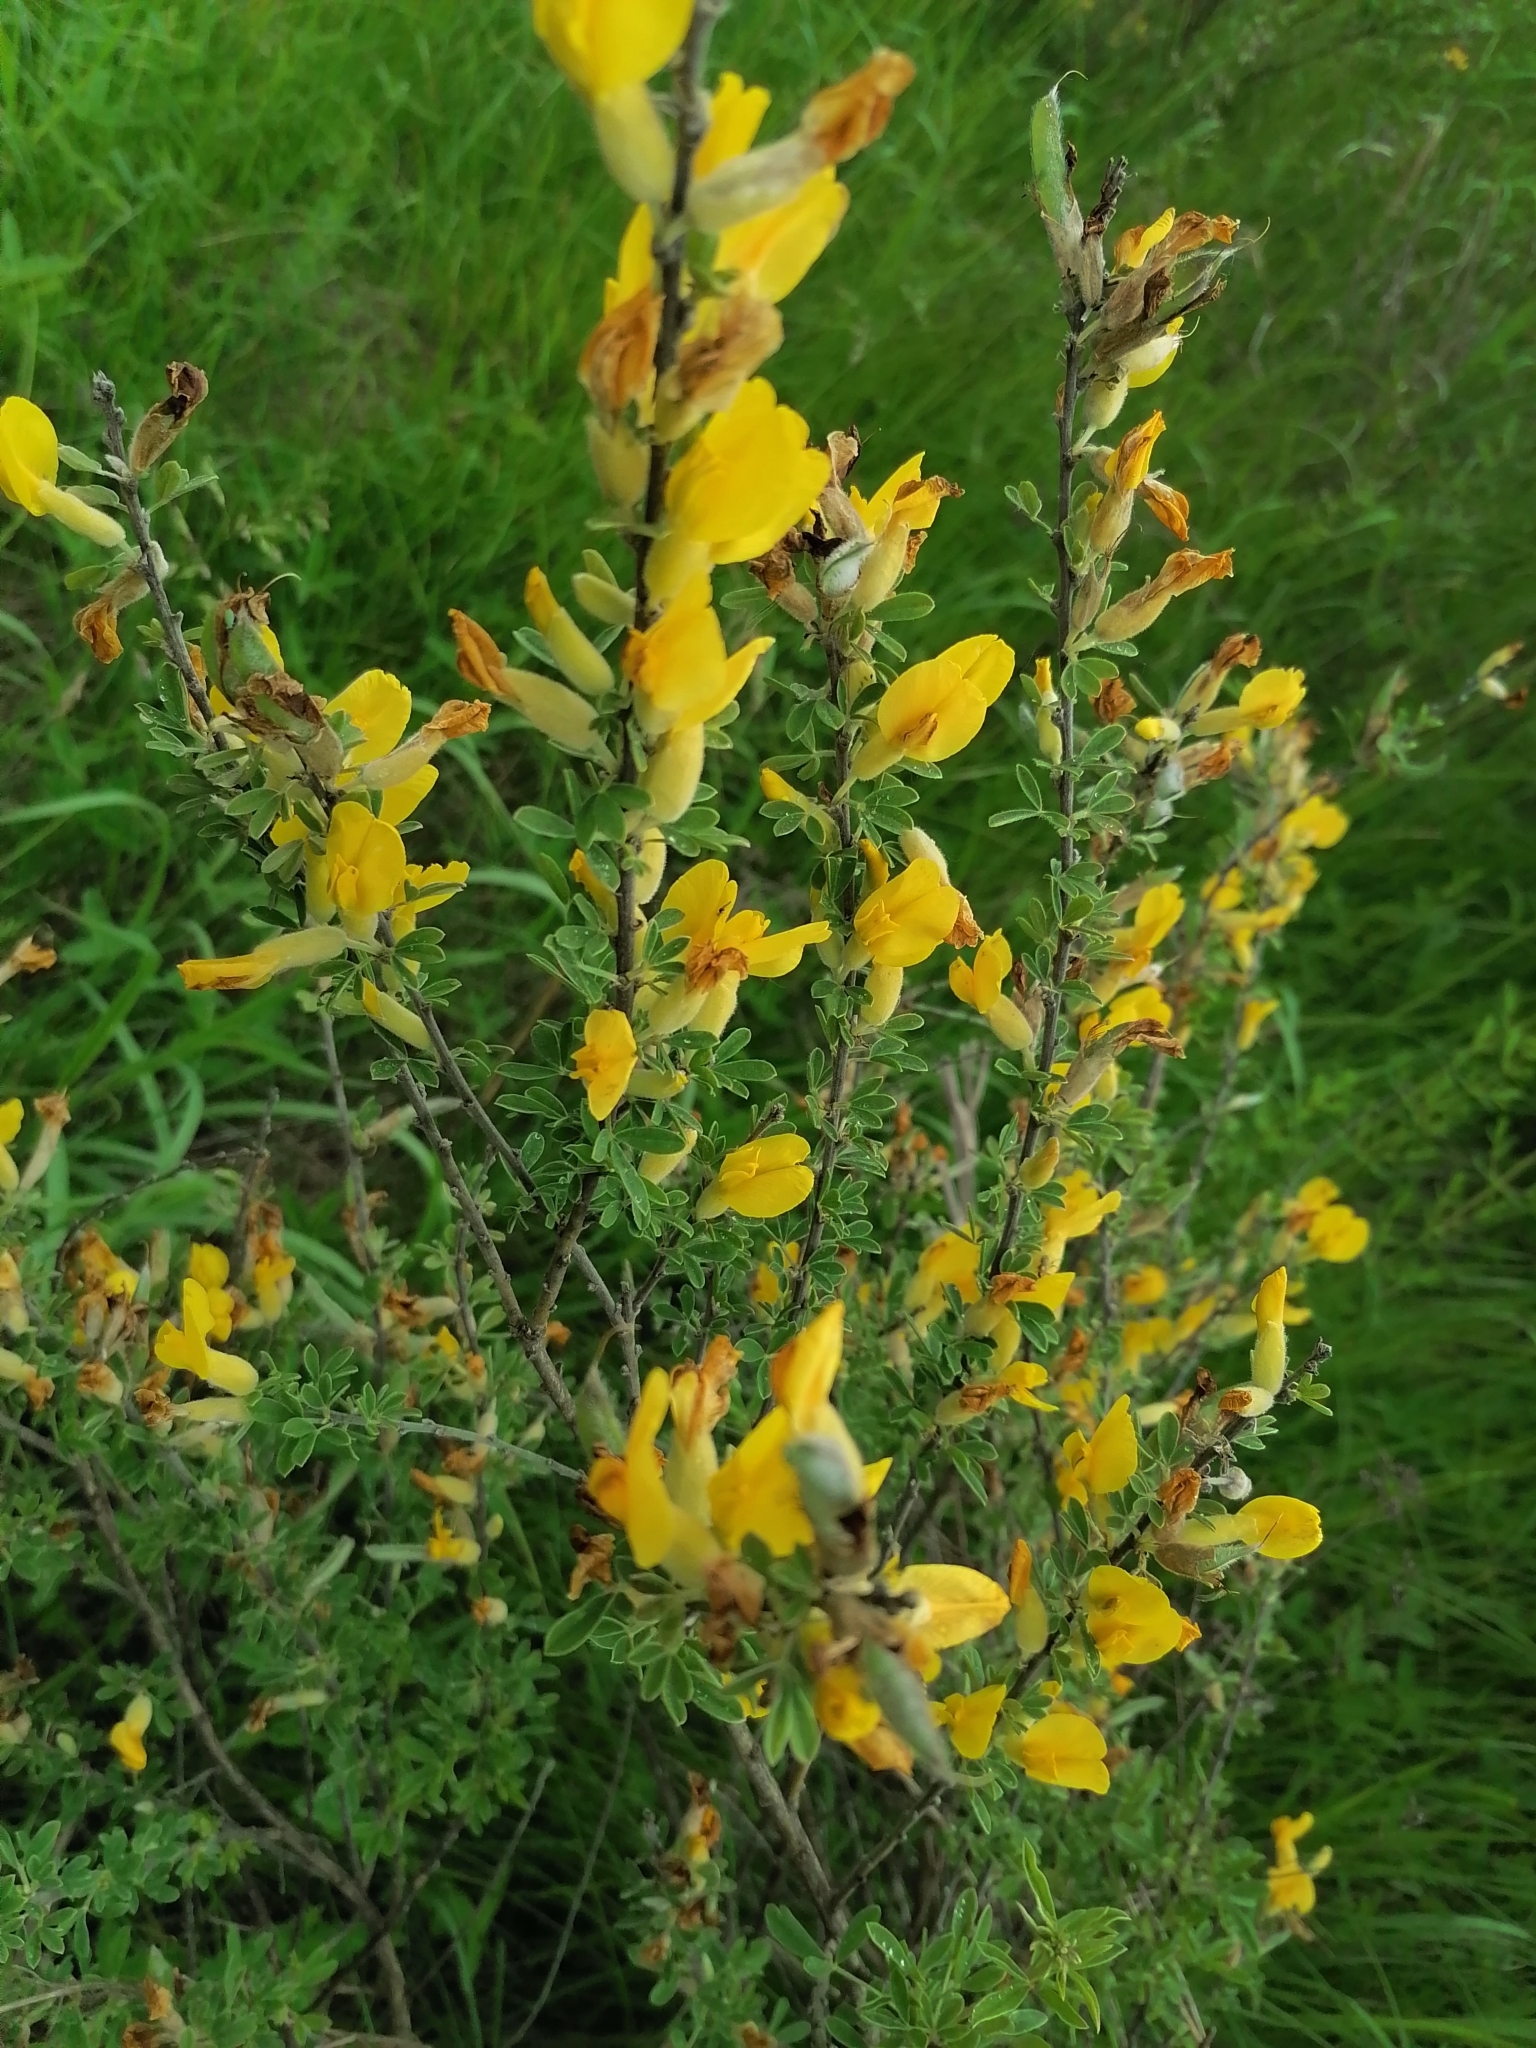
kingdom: Plantae
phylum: Tracheophyta
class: Magnoliopsida
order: Fabales
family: Fabaceae
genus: Chamaecytisus
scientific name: Chamaecytisus ruthenicus
